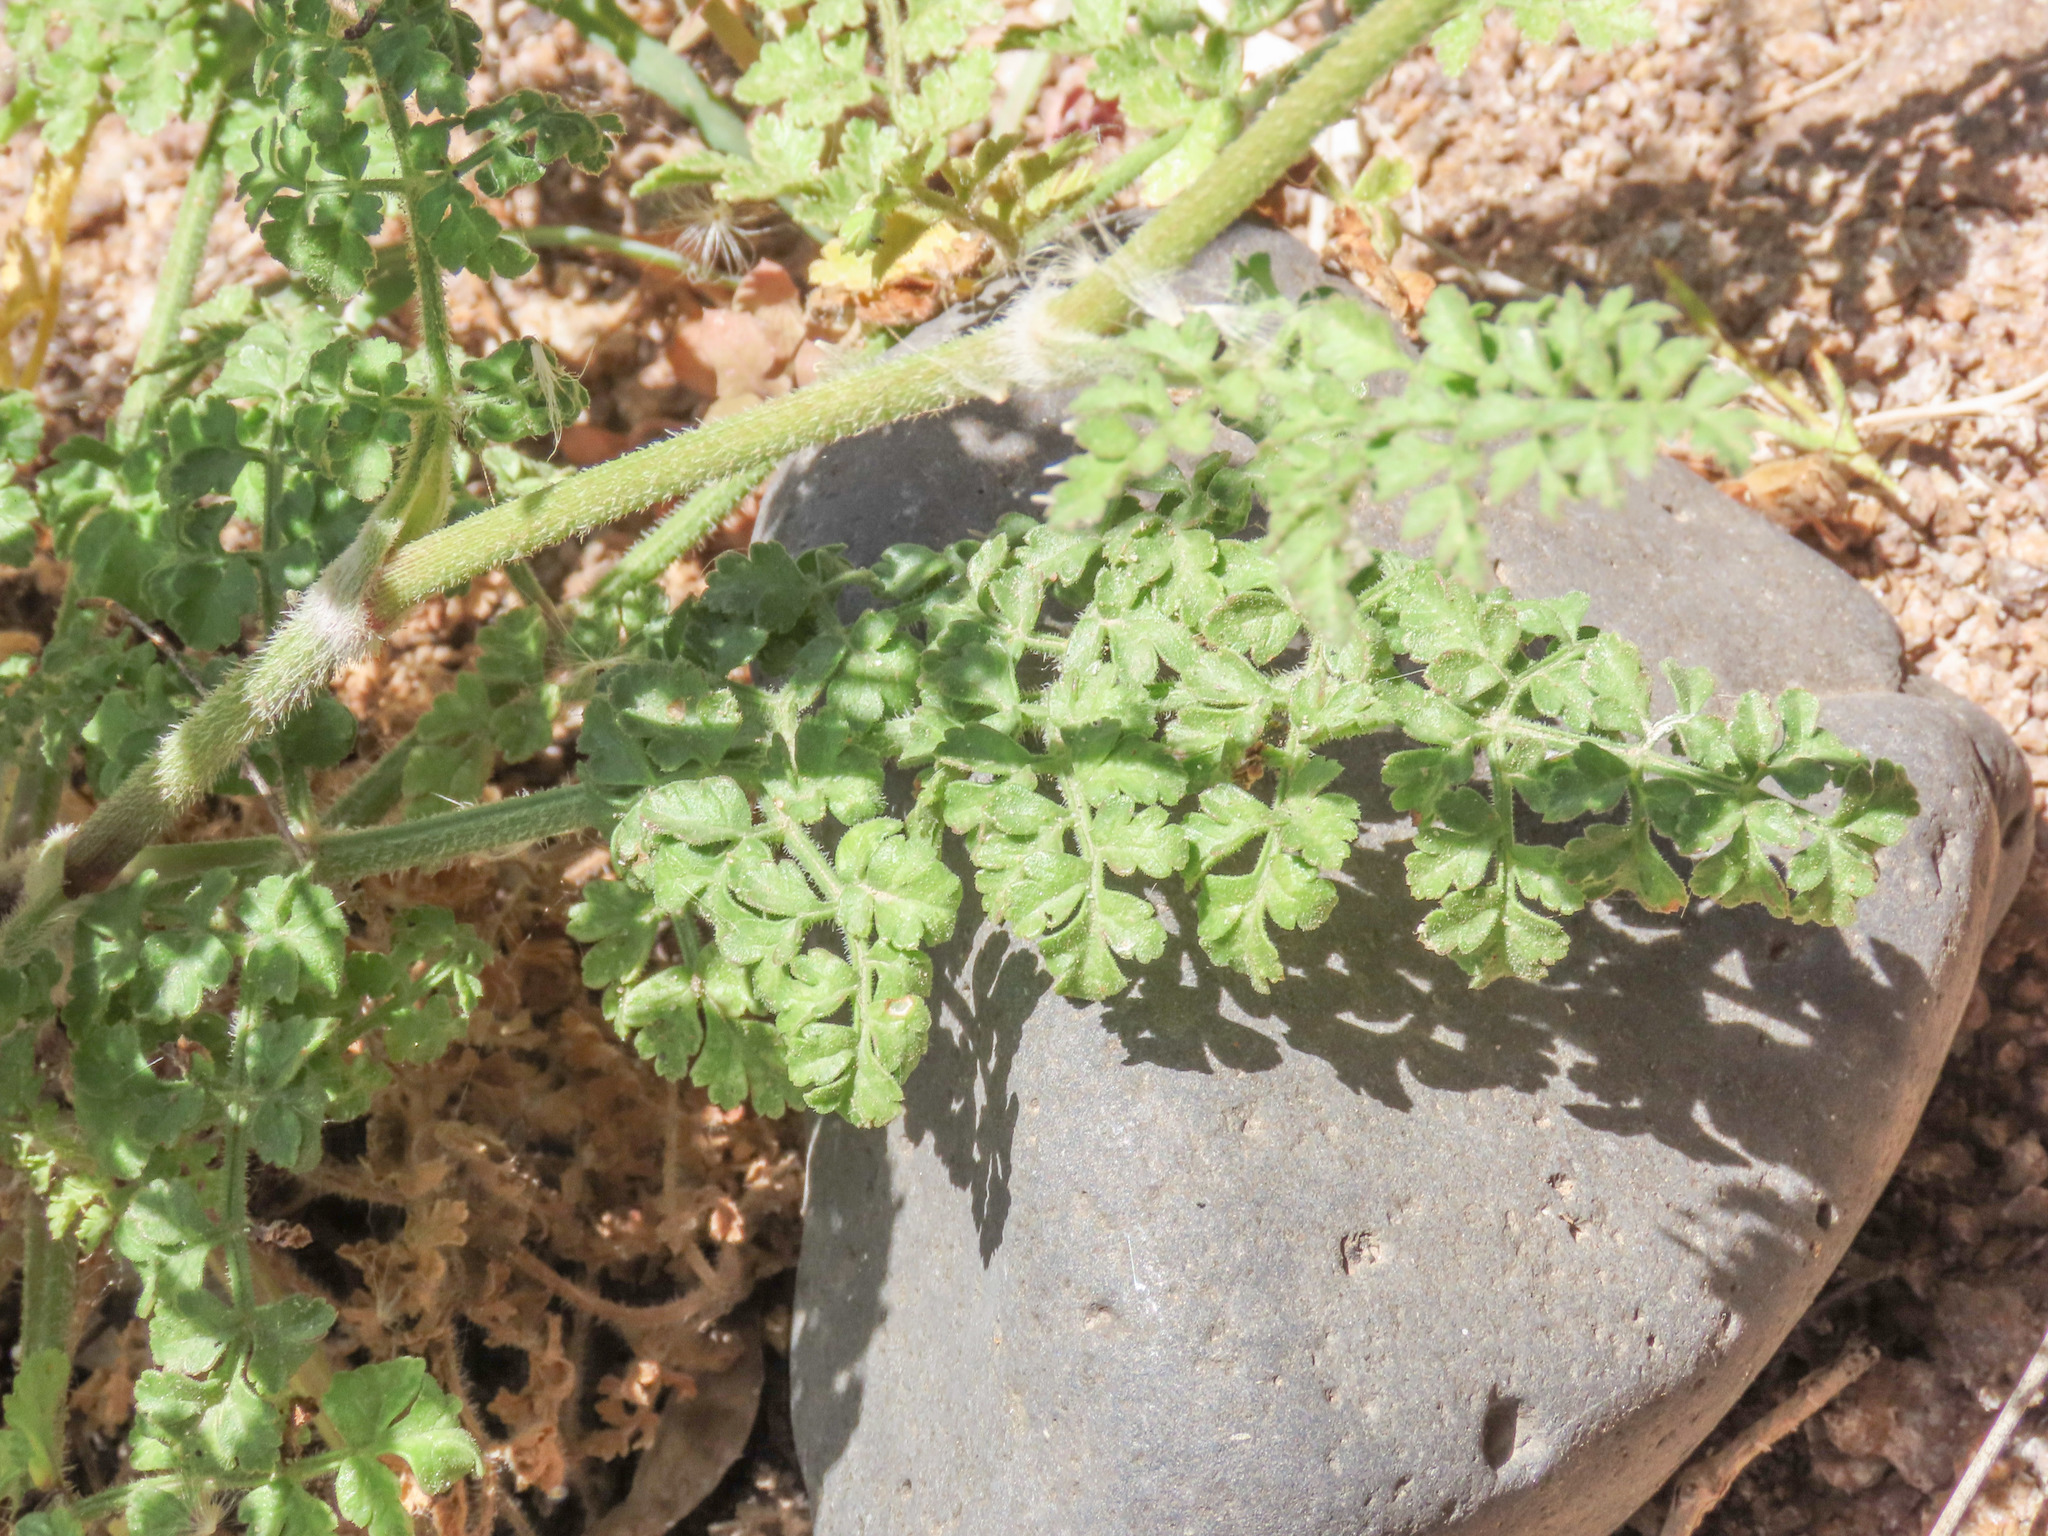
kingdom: Plantae
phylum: Tracheophyta
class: Magnoliopsida
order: Apiales
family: Apiaceae
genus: Daucus
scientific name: Daucus carota
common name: Wild carrot
